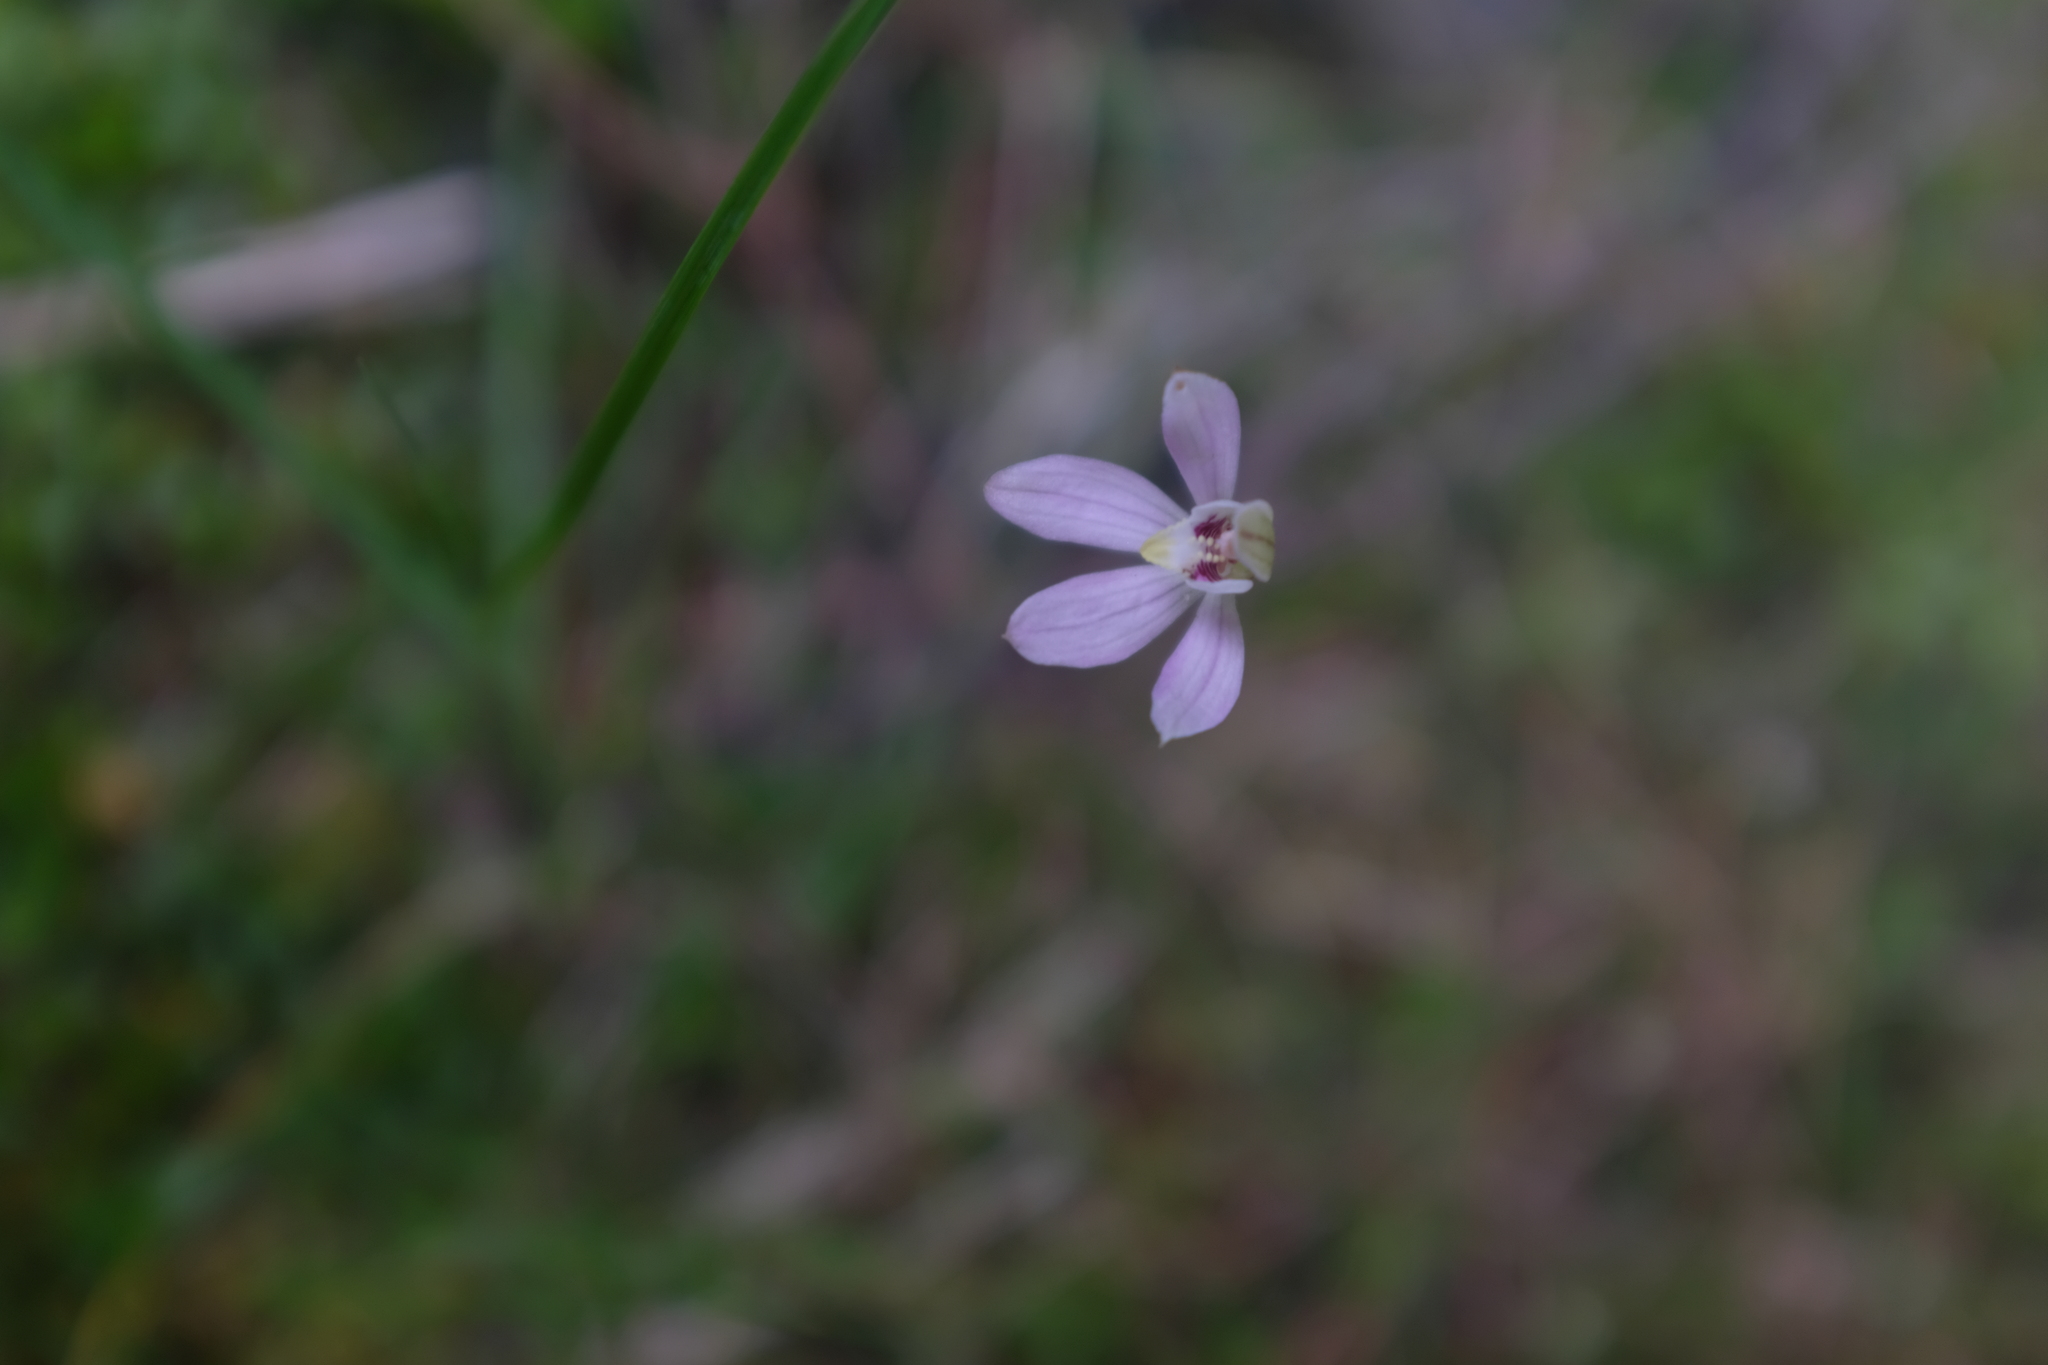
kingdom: Plantae
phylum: Tracheophyta
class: Liliopsida
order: Asparagales
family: Orchidaceae
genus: Caladenia
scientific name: Caladenia variegata
